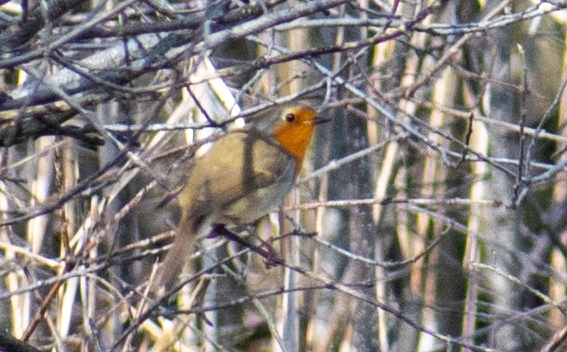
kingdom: Animalia
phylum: Chordata
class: Aves
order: Passeriformes
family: Muscicapidae
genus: Erithacus
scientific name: Erithacus rubecula
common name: European robin
